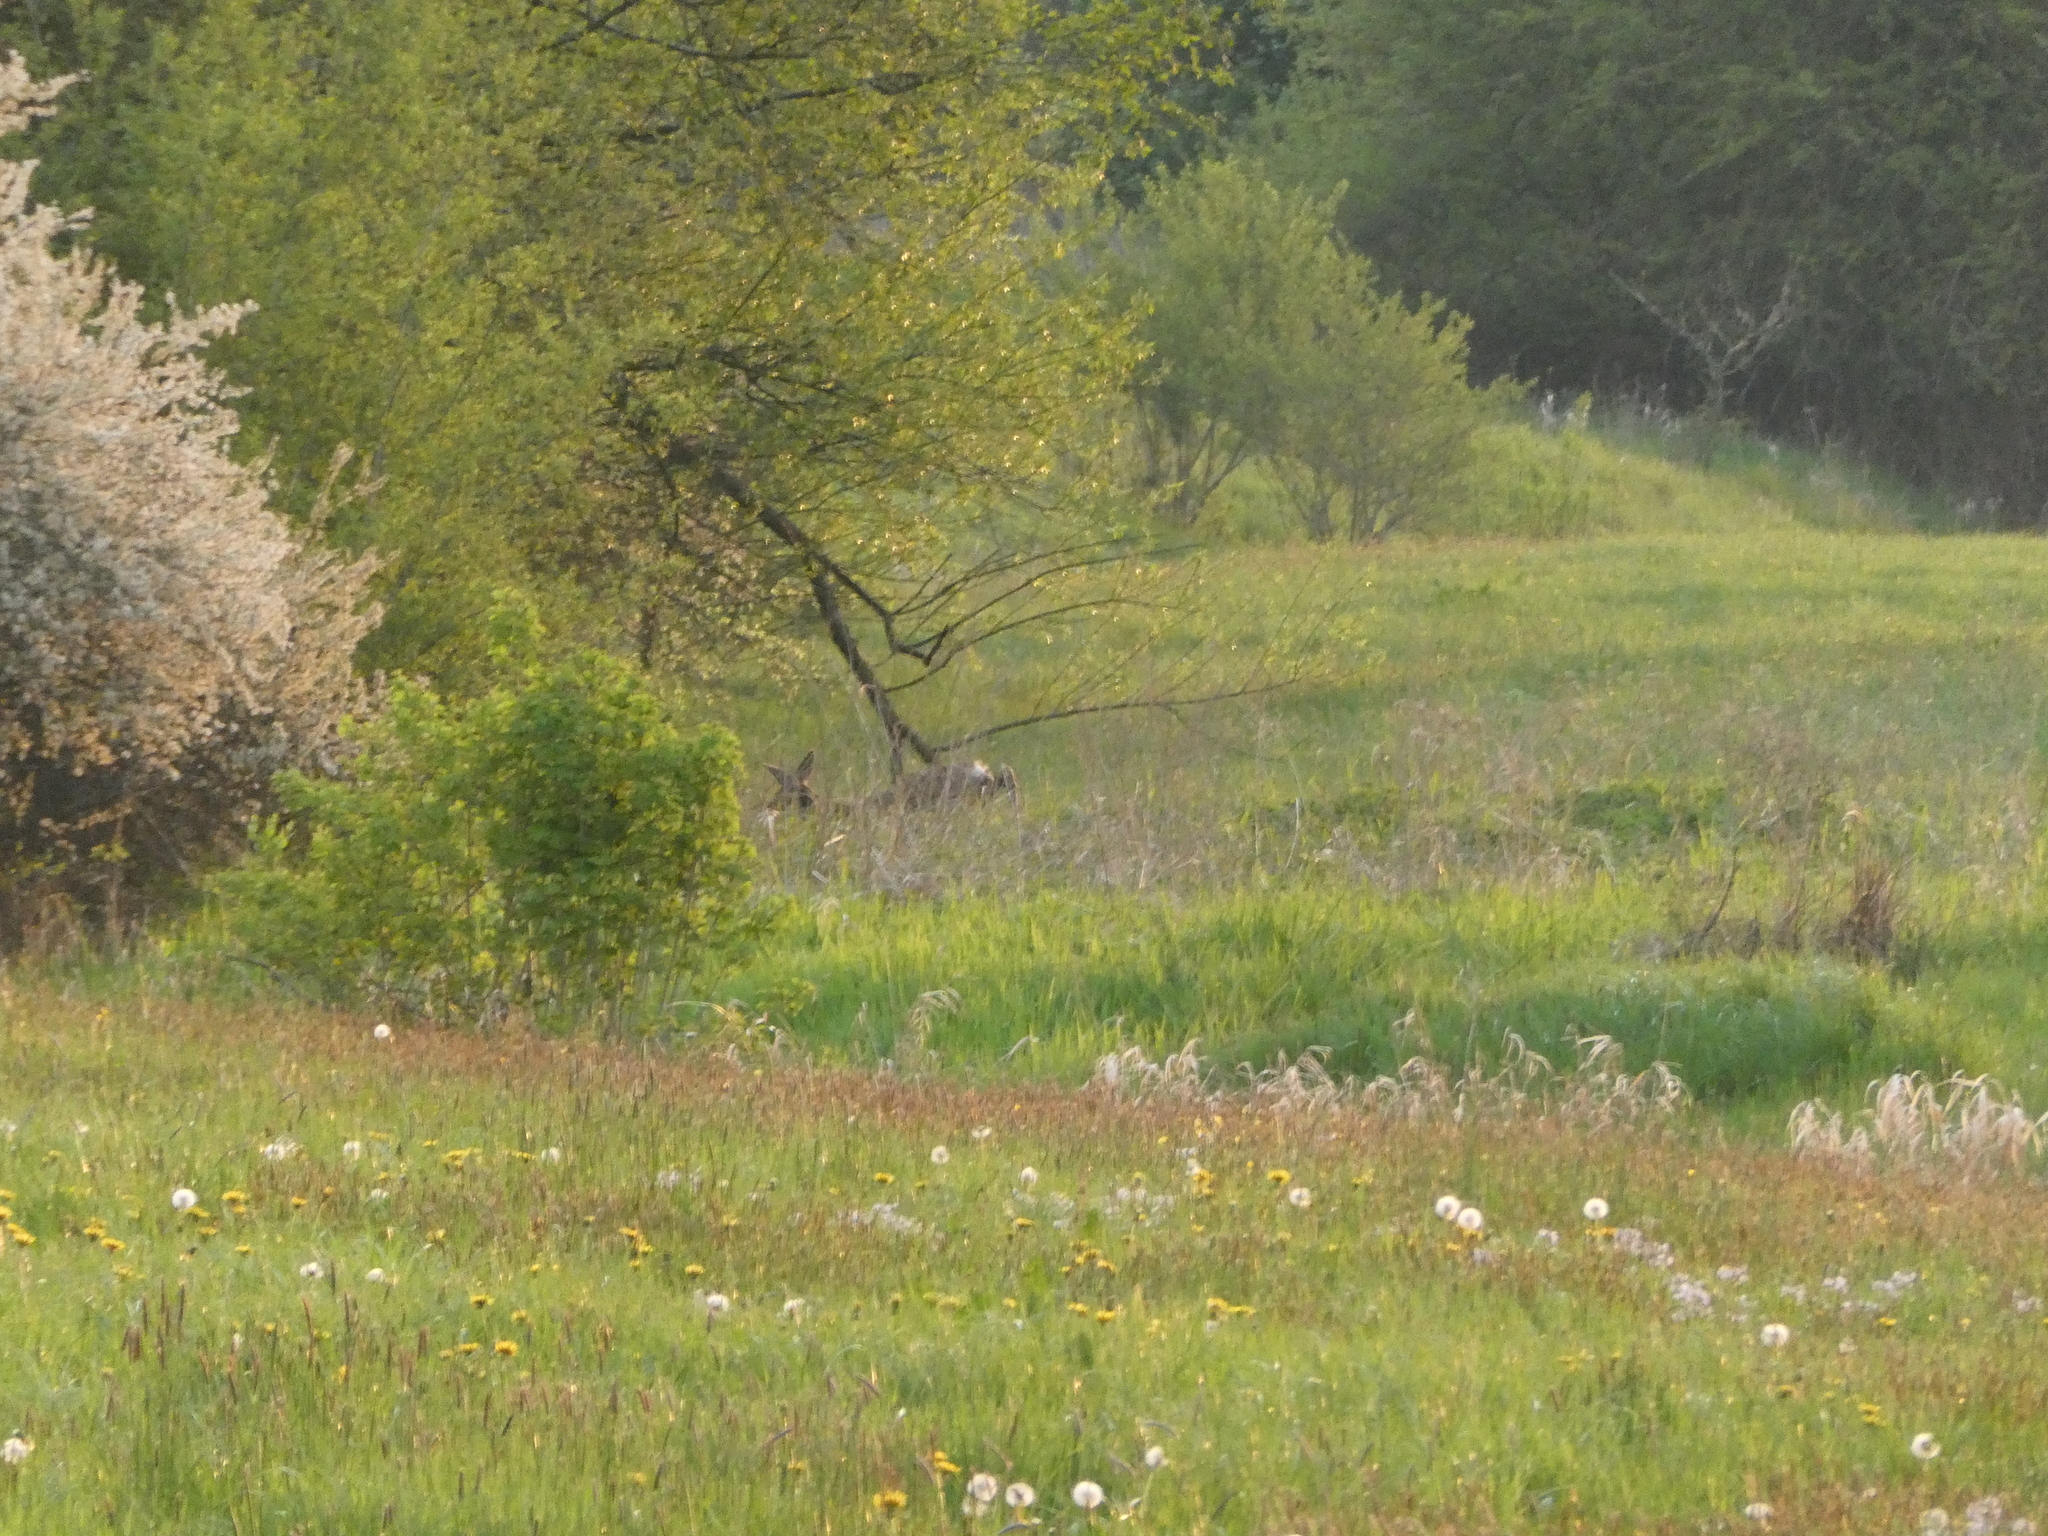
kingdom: Animalia
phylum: Chordata
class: Mammalia
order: Artiodactyla
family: Cervidae
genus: Capreolus
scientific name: Capreolus capreolus
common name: Western roe deer
